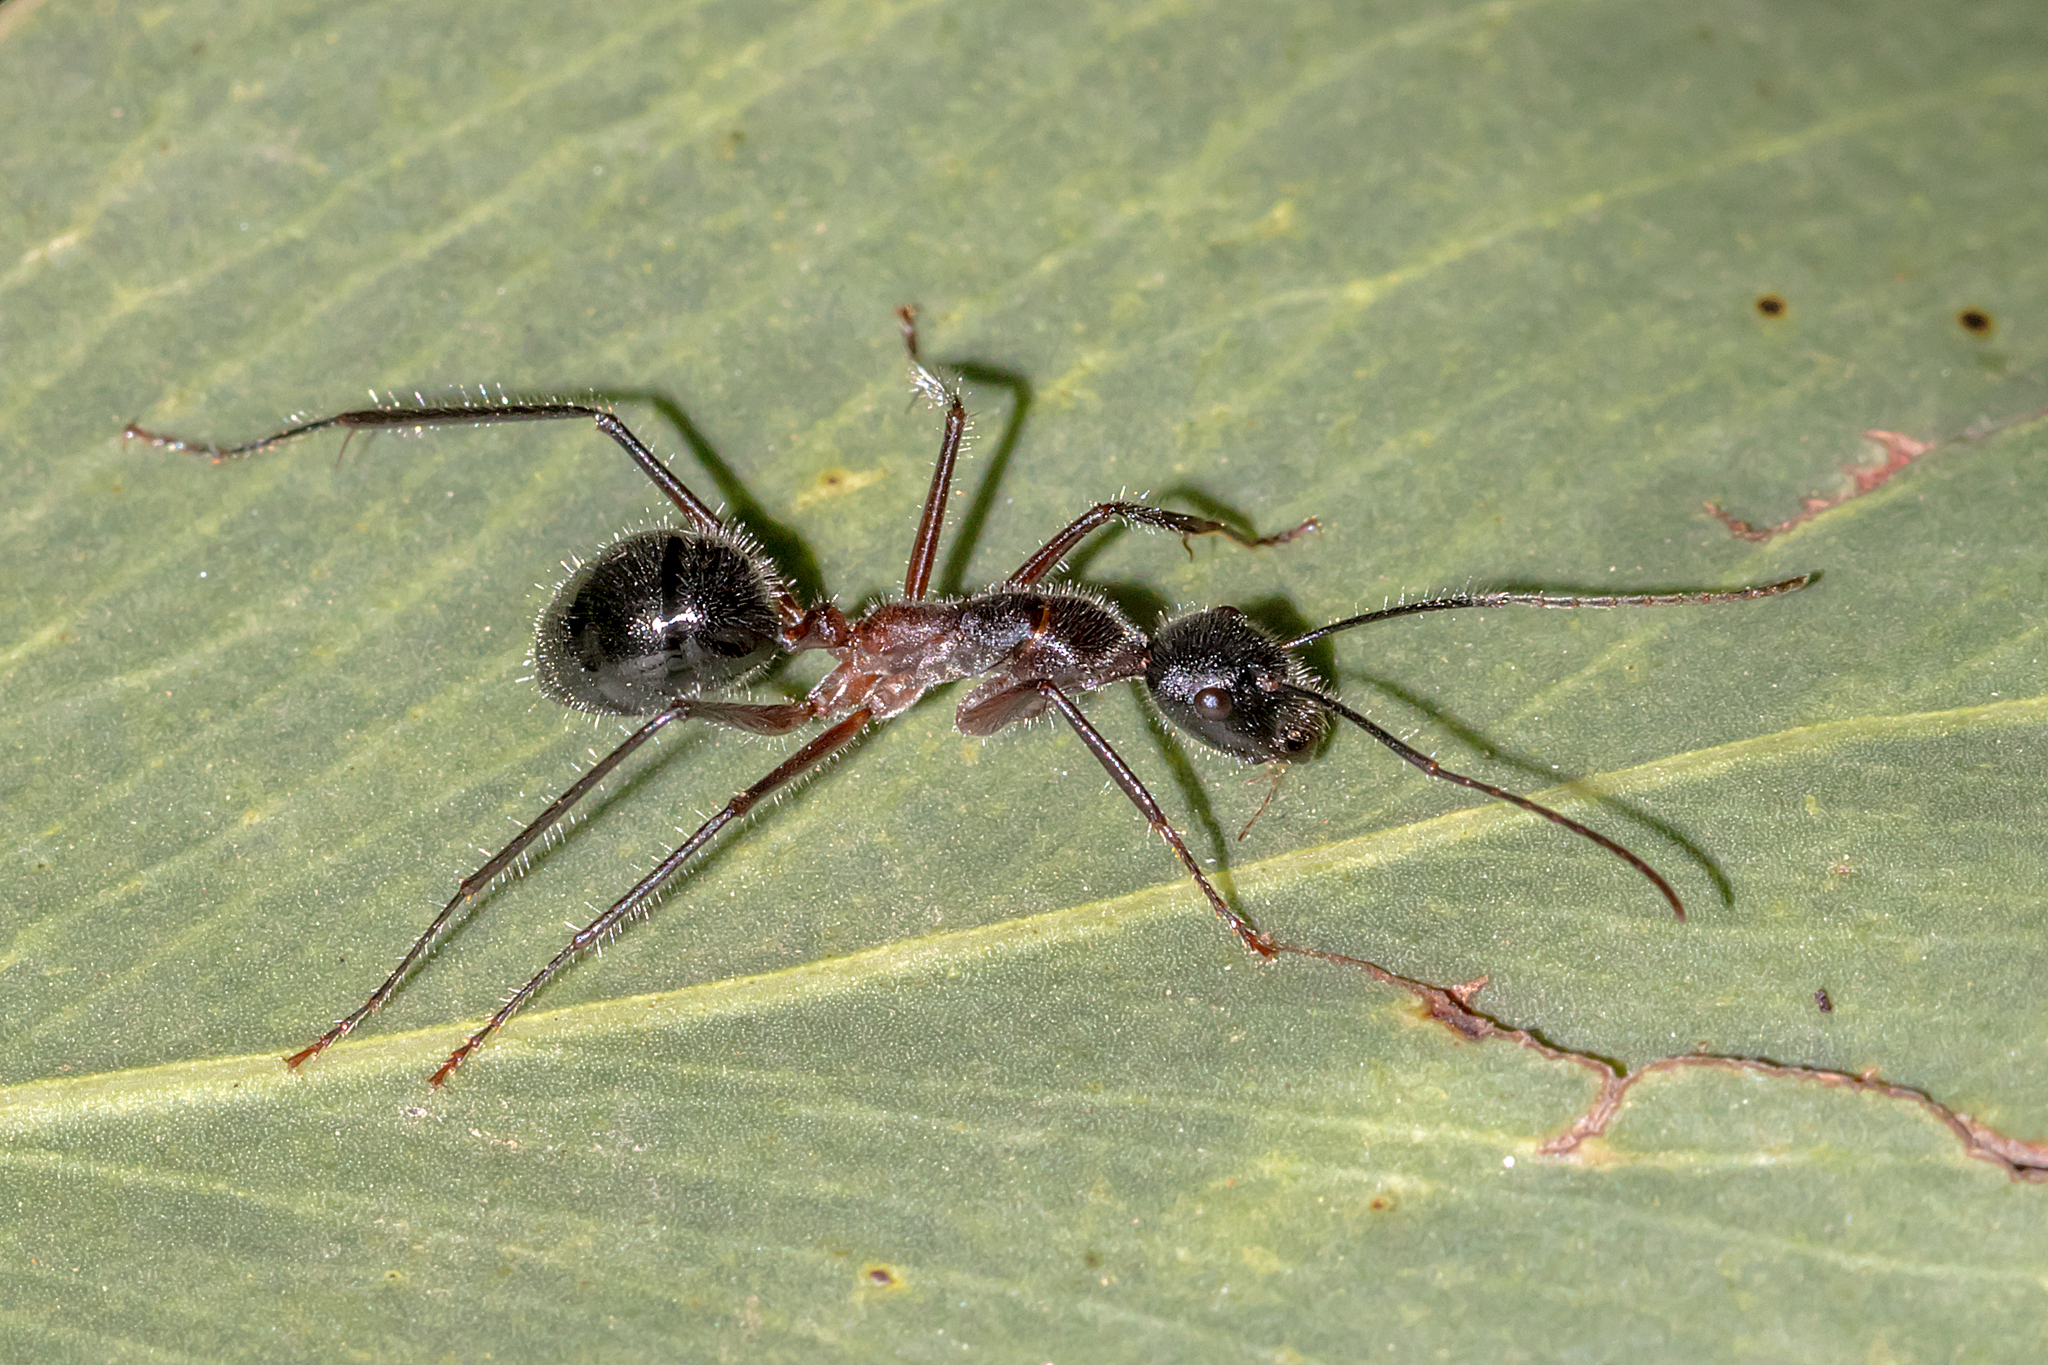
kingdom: Animalia
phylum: Arthropoda
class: Insecta
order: Hymenoptera
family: Formicidae
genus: Camponotus
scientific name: Camponotus intrepidus
